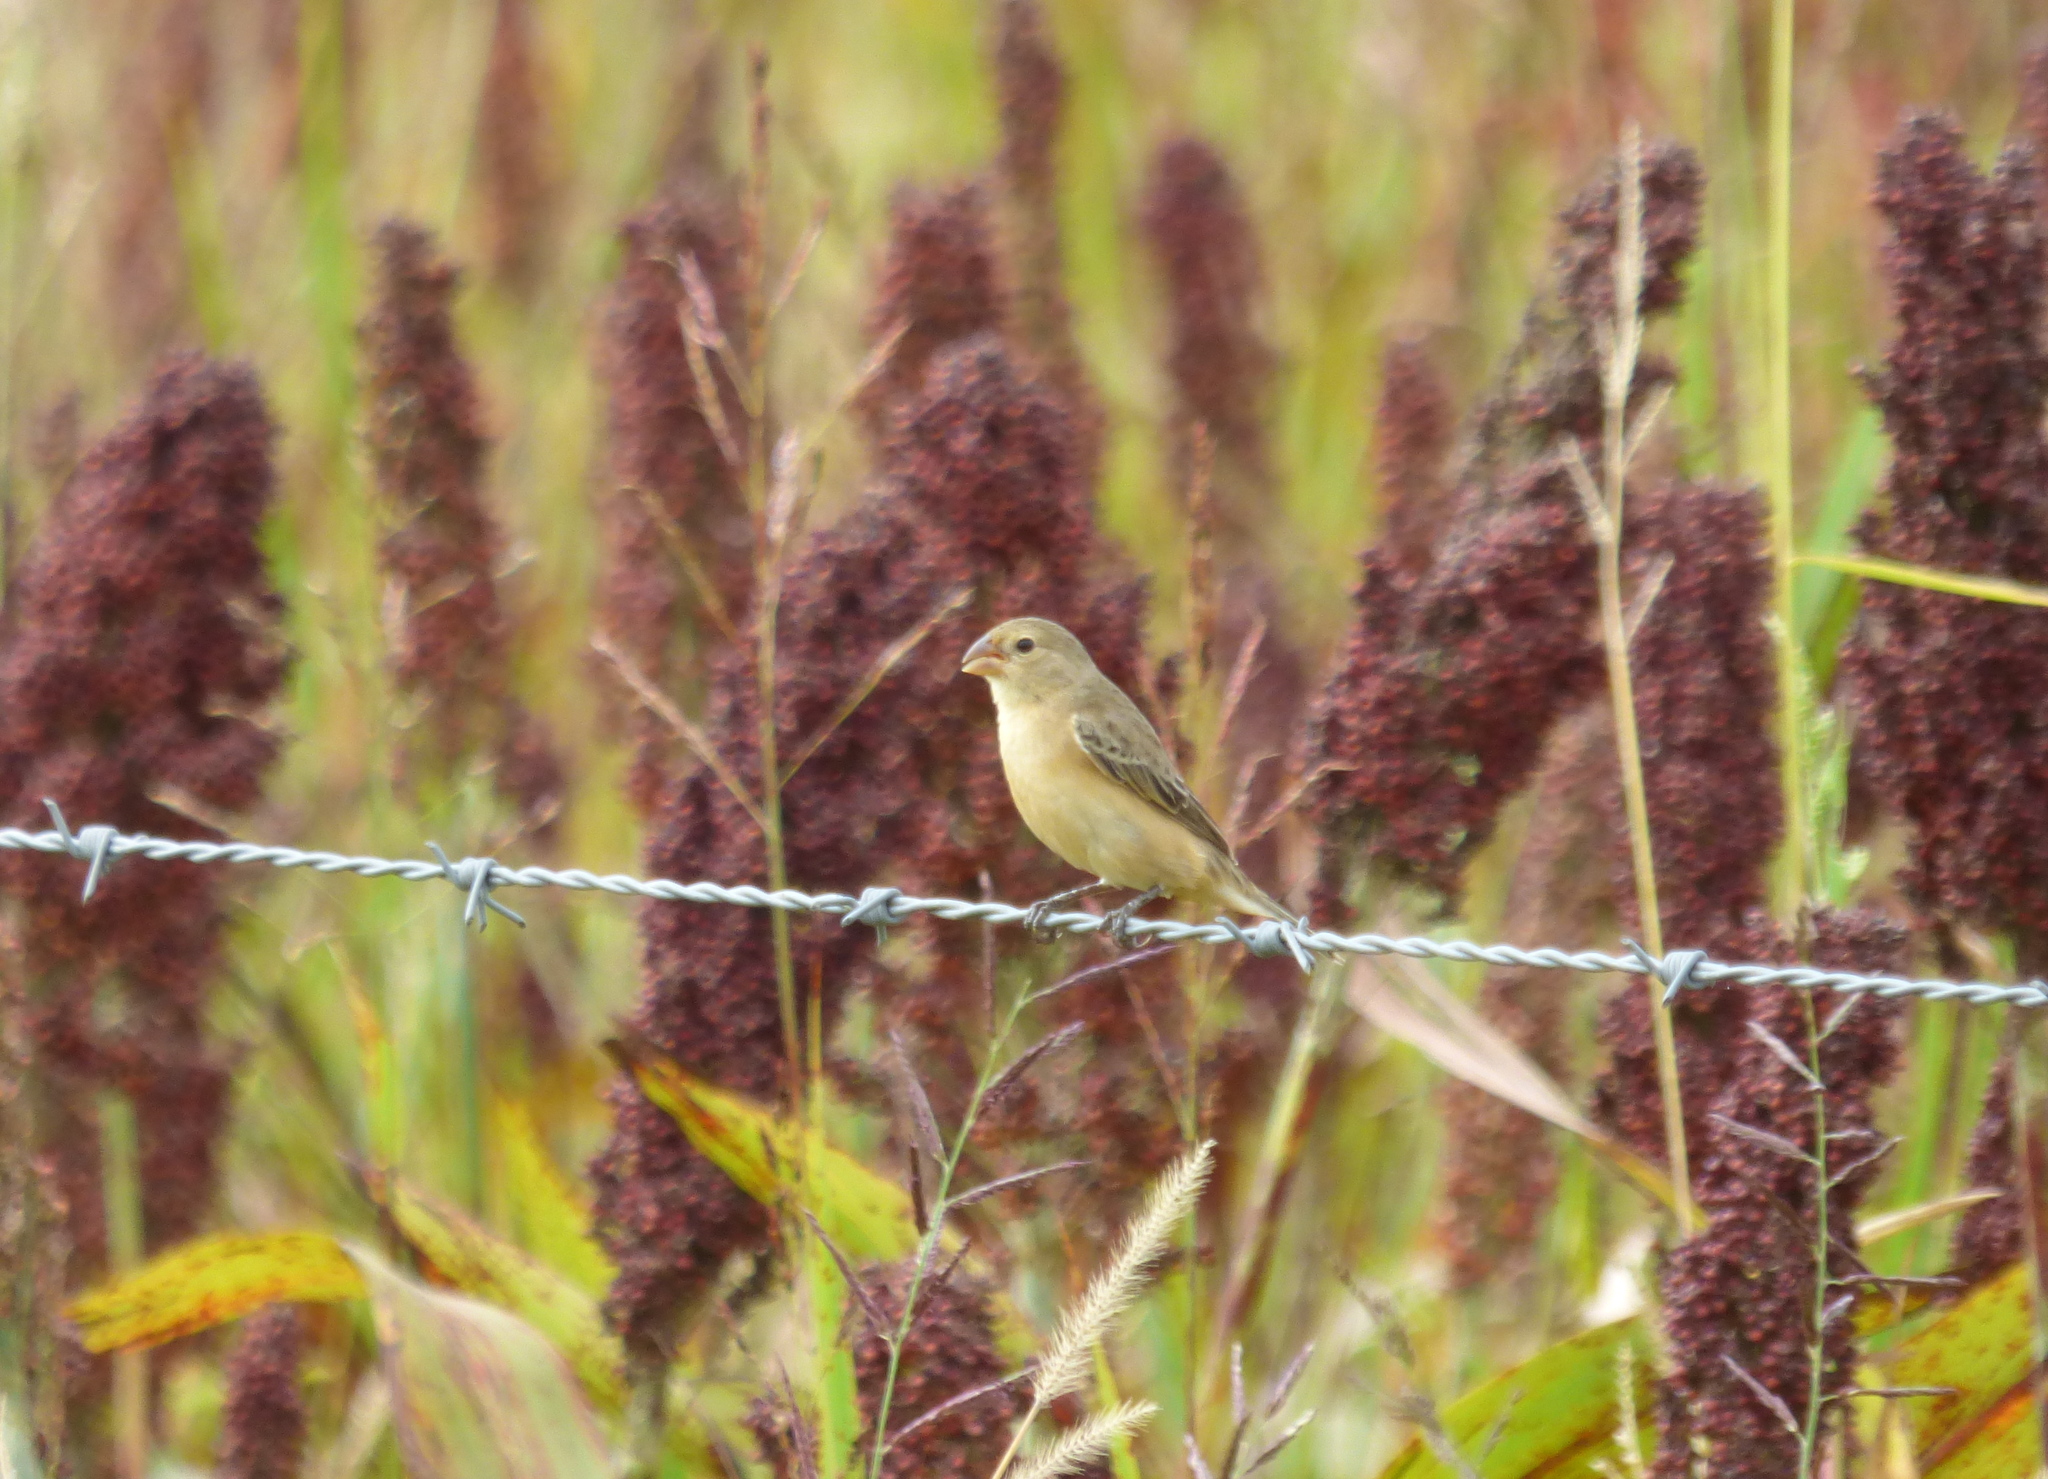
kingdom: Animalia
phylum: Chordata
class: Aves
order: Passeriformes
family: Thraupidae
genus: Sporophila
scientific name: Sporophila ruficollis
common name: Dark-throated seedeater
